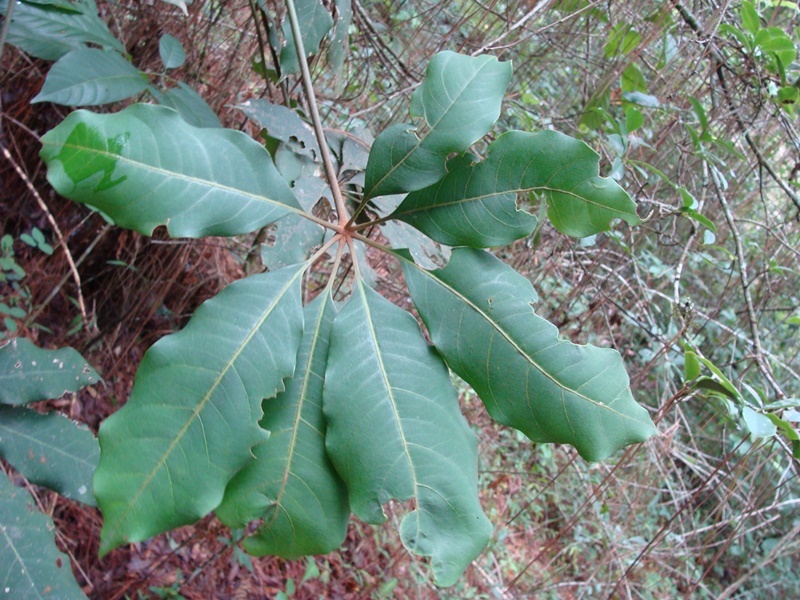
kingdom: Plantae
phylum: Tracheophyta
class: Magnoliopsida
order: Apiales
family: Araliaceae
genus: Oreopanax
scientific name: Oreopanax xalapensis
